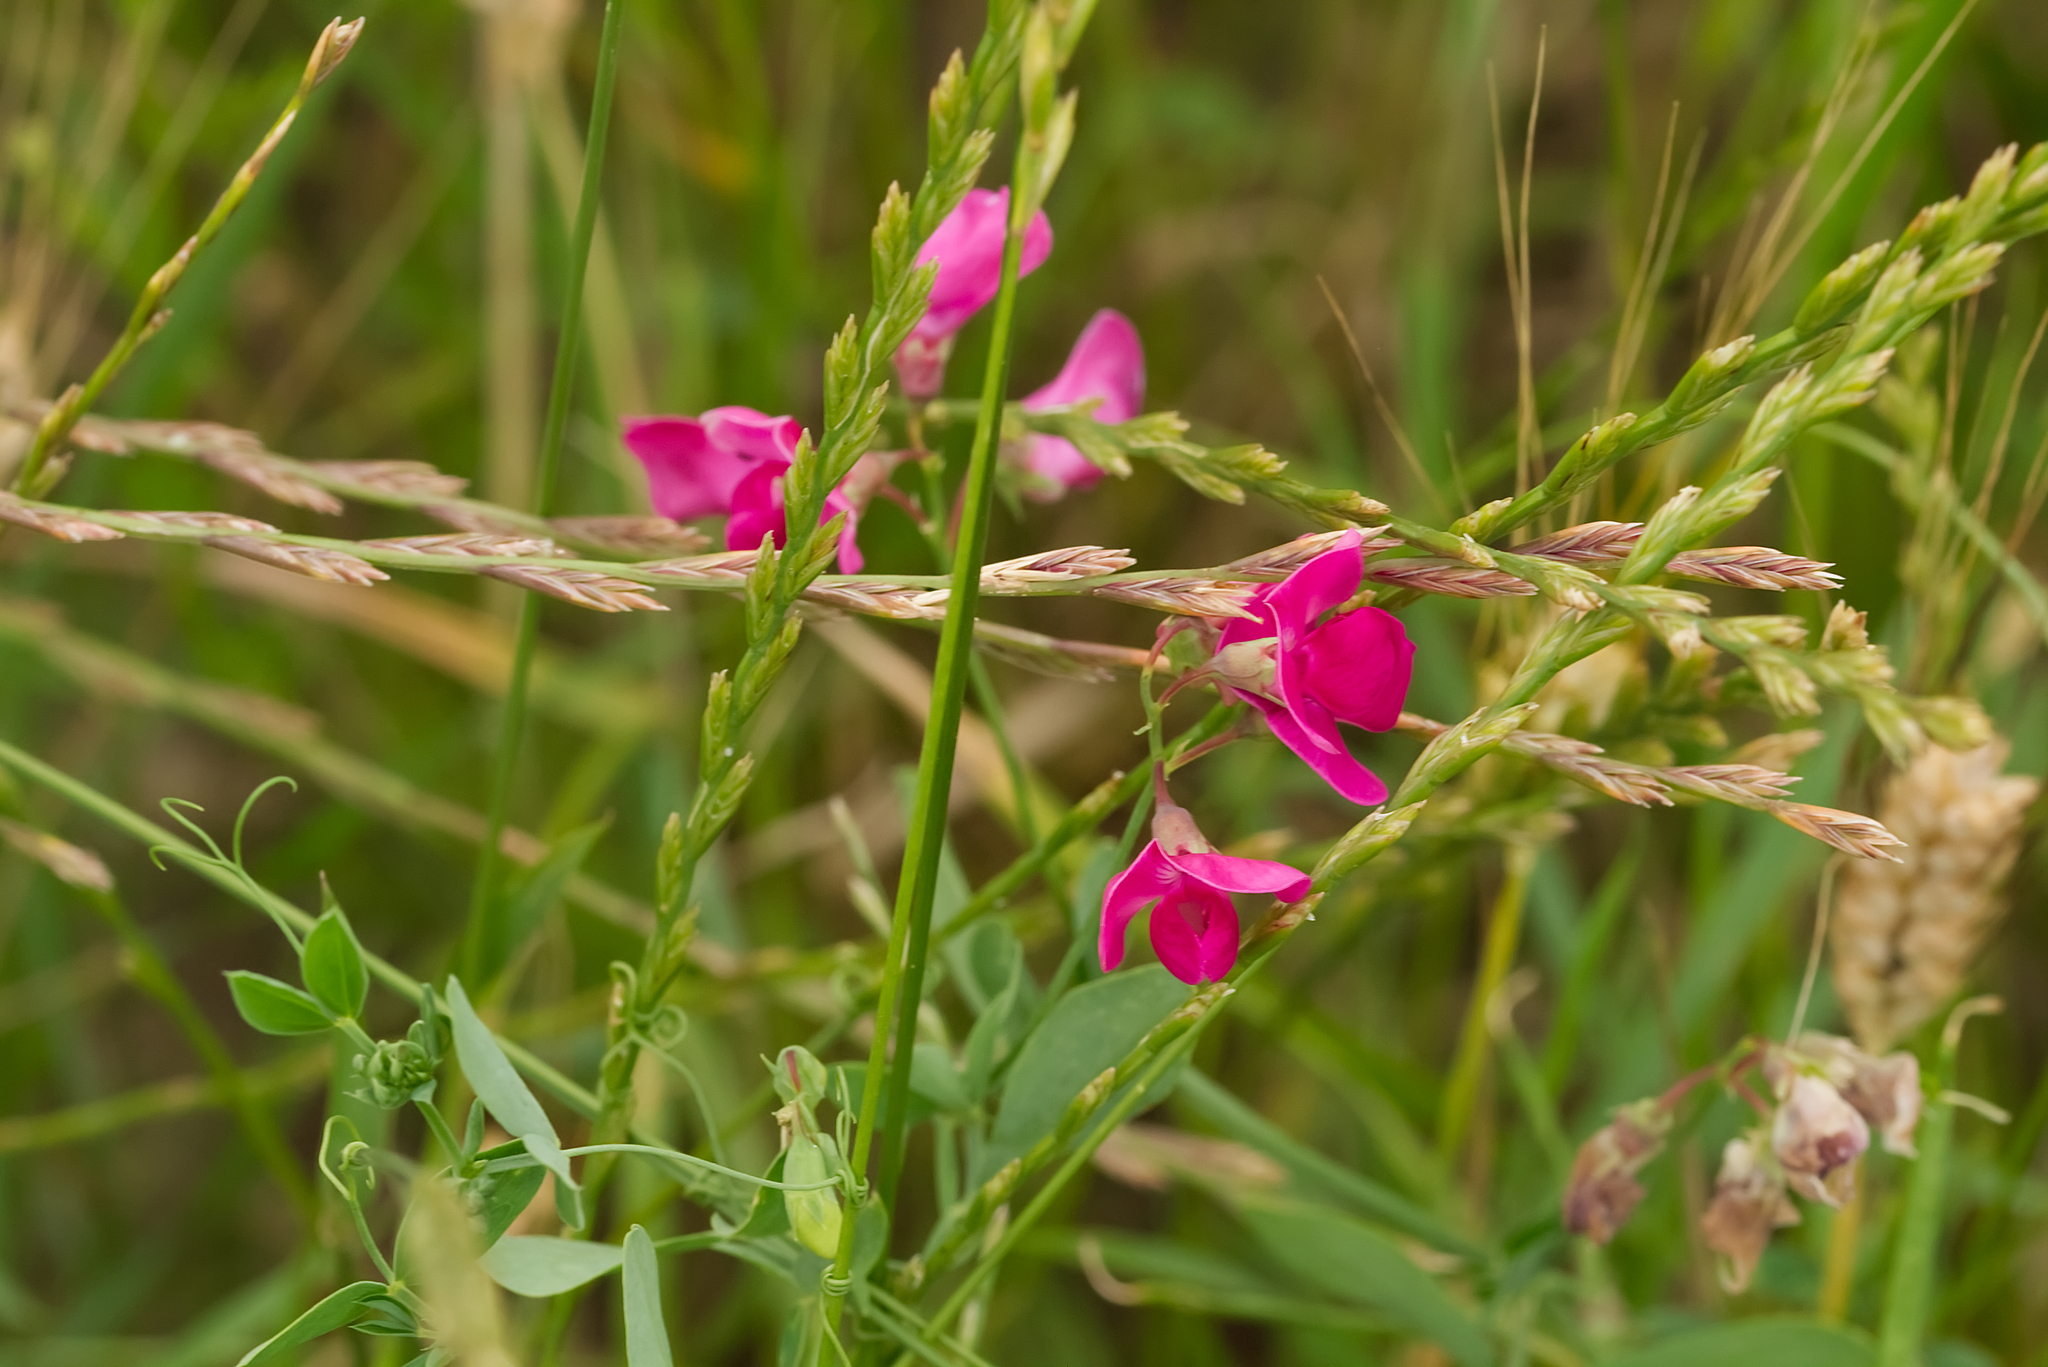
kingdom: Plantae
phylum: Tracheophyta
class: Magnoliopsida
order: Fabales
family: Fabaceae
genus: Lathyrus
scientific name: Lathyrus tuberosus
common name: Tuberous pea
